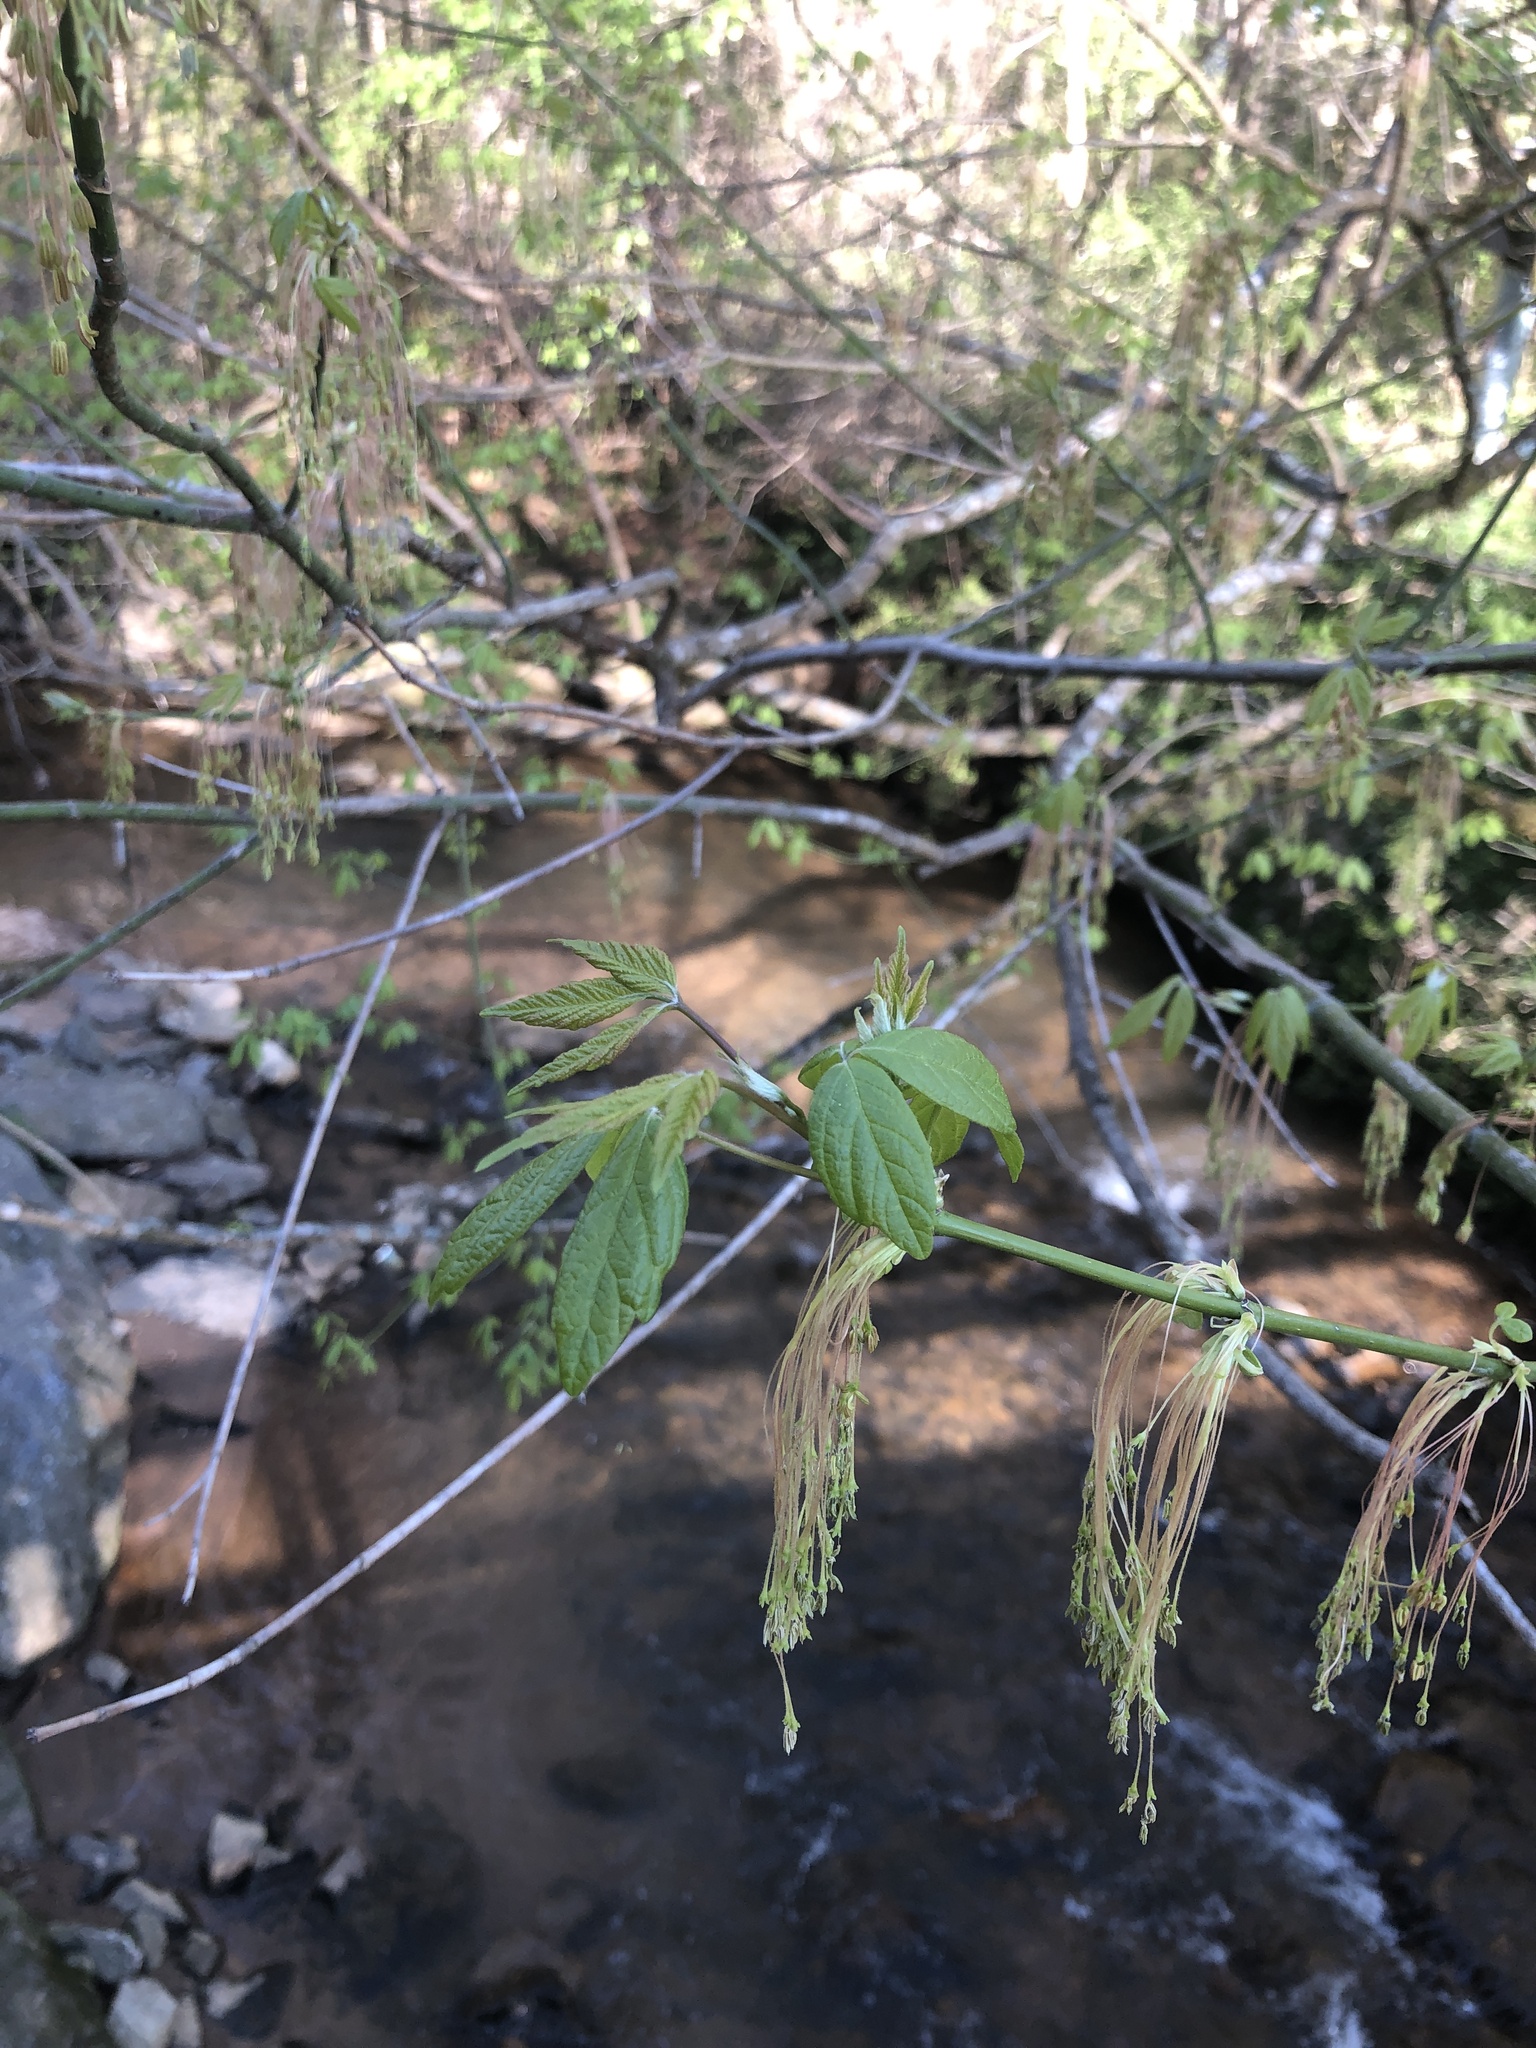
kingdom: Plantae
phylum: Tracheophyta
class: Magnoliopsida
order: Sapindales
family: Sapindaceae
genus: Acer
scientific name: Acer negundo
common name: Ashleaf maple
